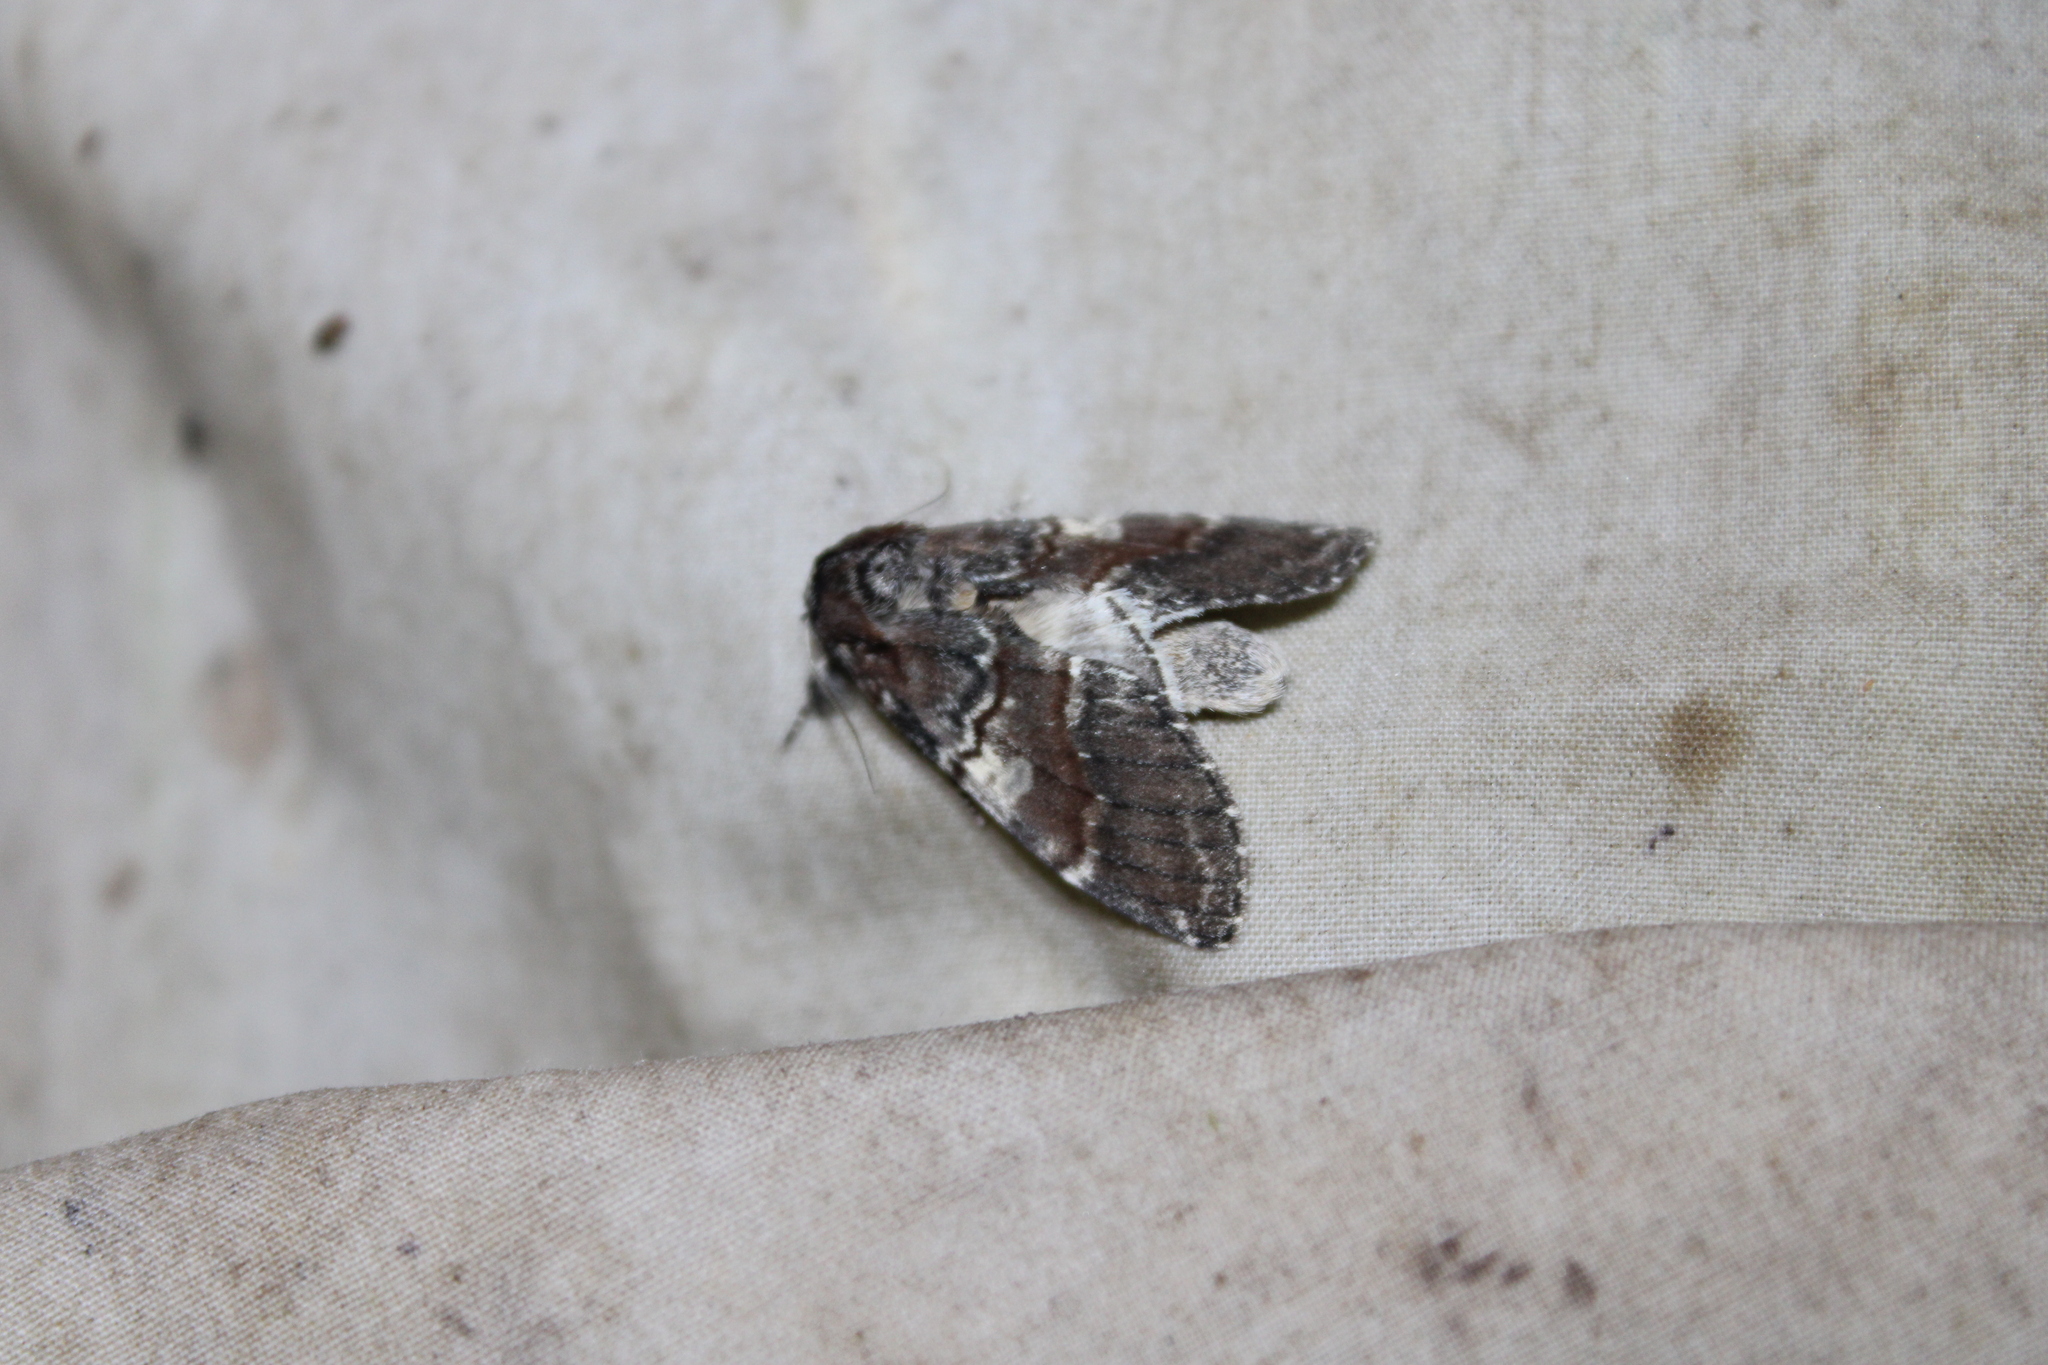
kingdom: Animalia
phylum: Arthropoda
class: Insecta
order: Lepidoptera
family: Notodontidae
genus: Peridea
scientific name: Peridea ferruginea
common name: Chocolate prominent
